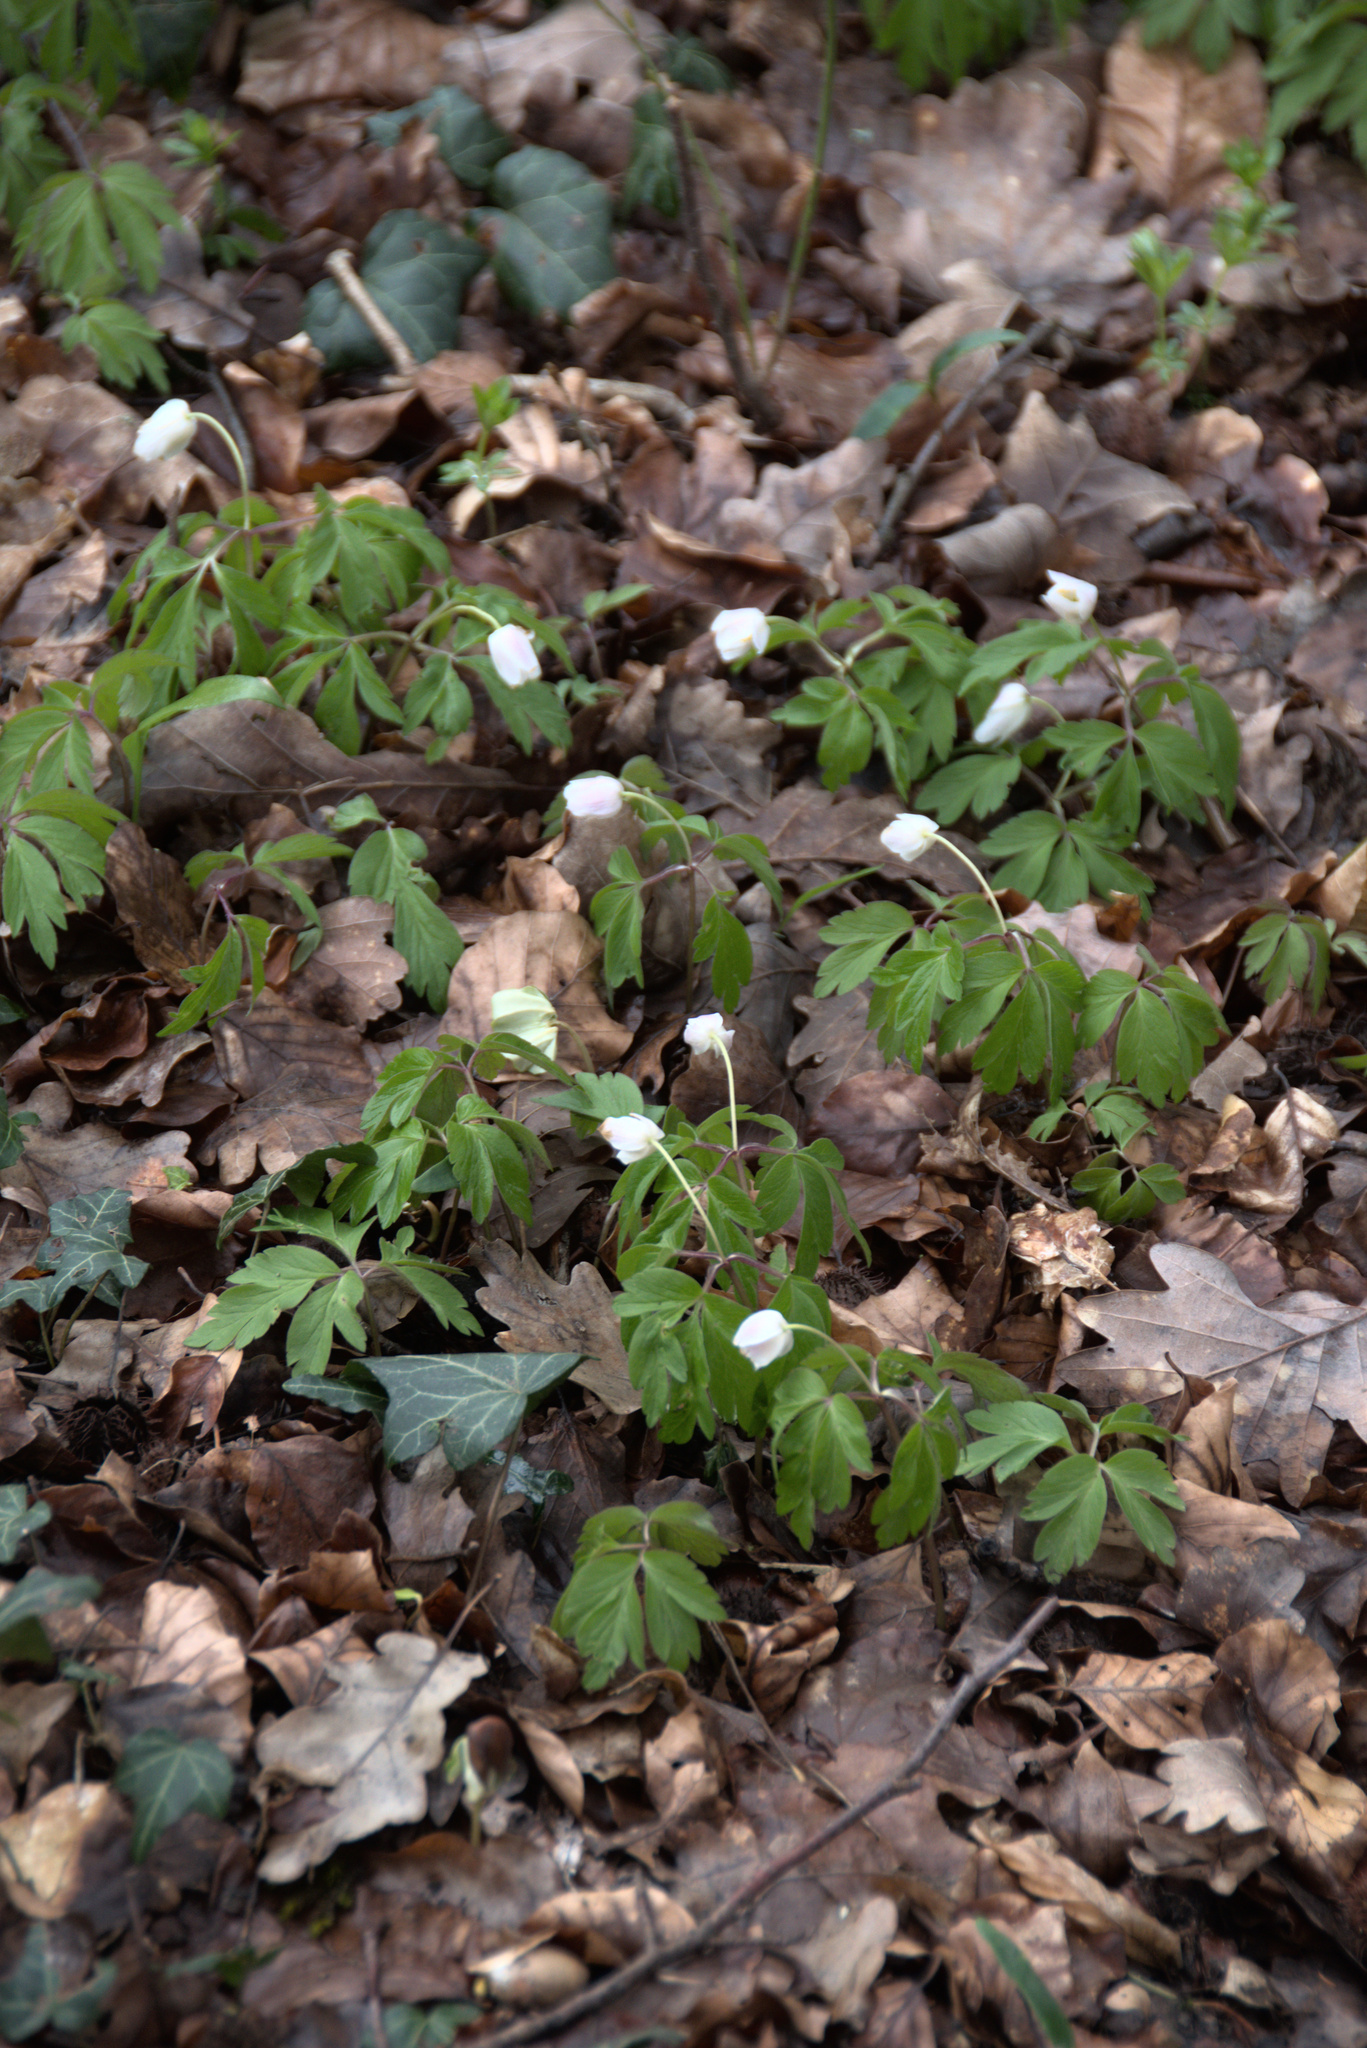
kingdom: Plantae
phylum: Tracheophyta
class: Magnoliopsida
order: Ranunculales
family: Ranunculaceae
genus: Anemone
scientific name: Anemone nemorosa
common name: Wood anemone
